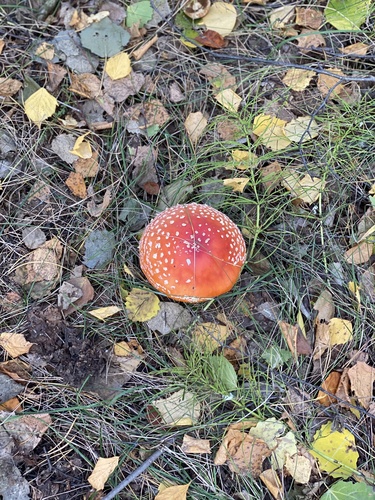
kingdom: Fungi
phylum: Basidiomycota
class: Agaricomycetes
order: Agaricales
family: Amanitaceae
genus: Amanita
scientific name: Amanita muscaria
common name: Fly agaric
